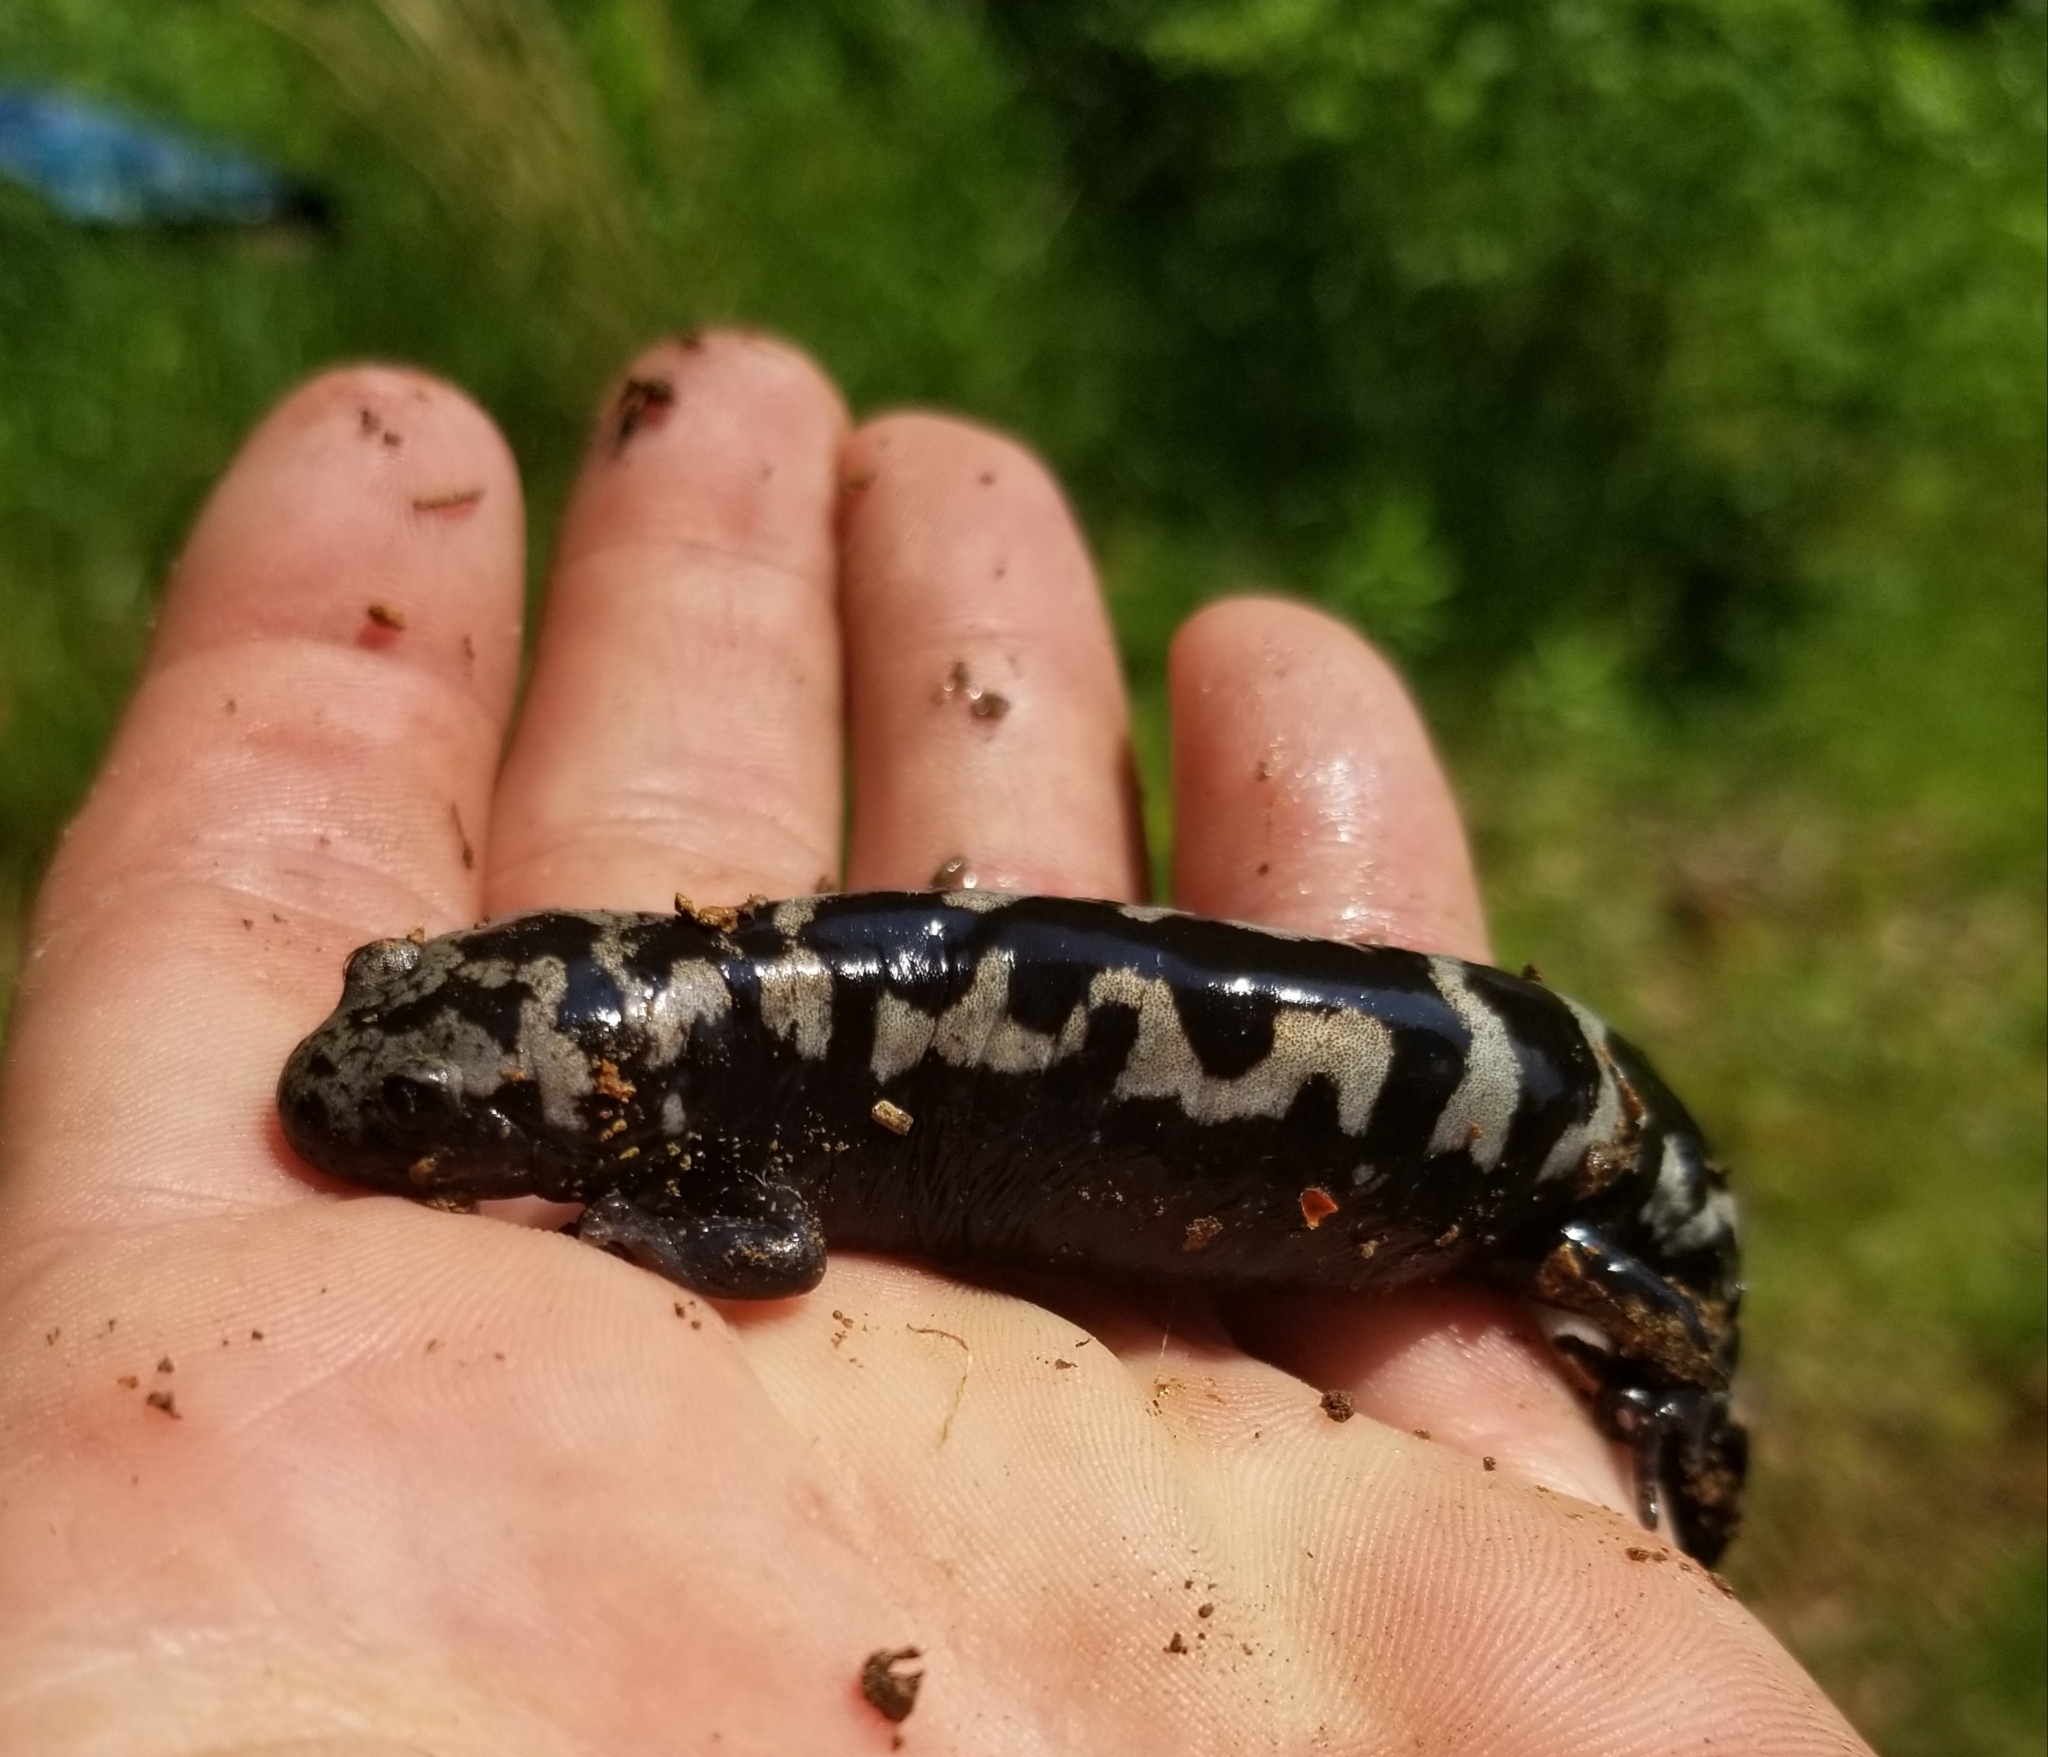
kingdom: Animalia
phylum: Chordata
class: Amphibia
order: Caudata
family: Ambystomatidae
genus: Ambystoma
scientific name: Ambystoma opacum
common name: Marbled salamander
